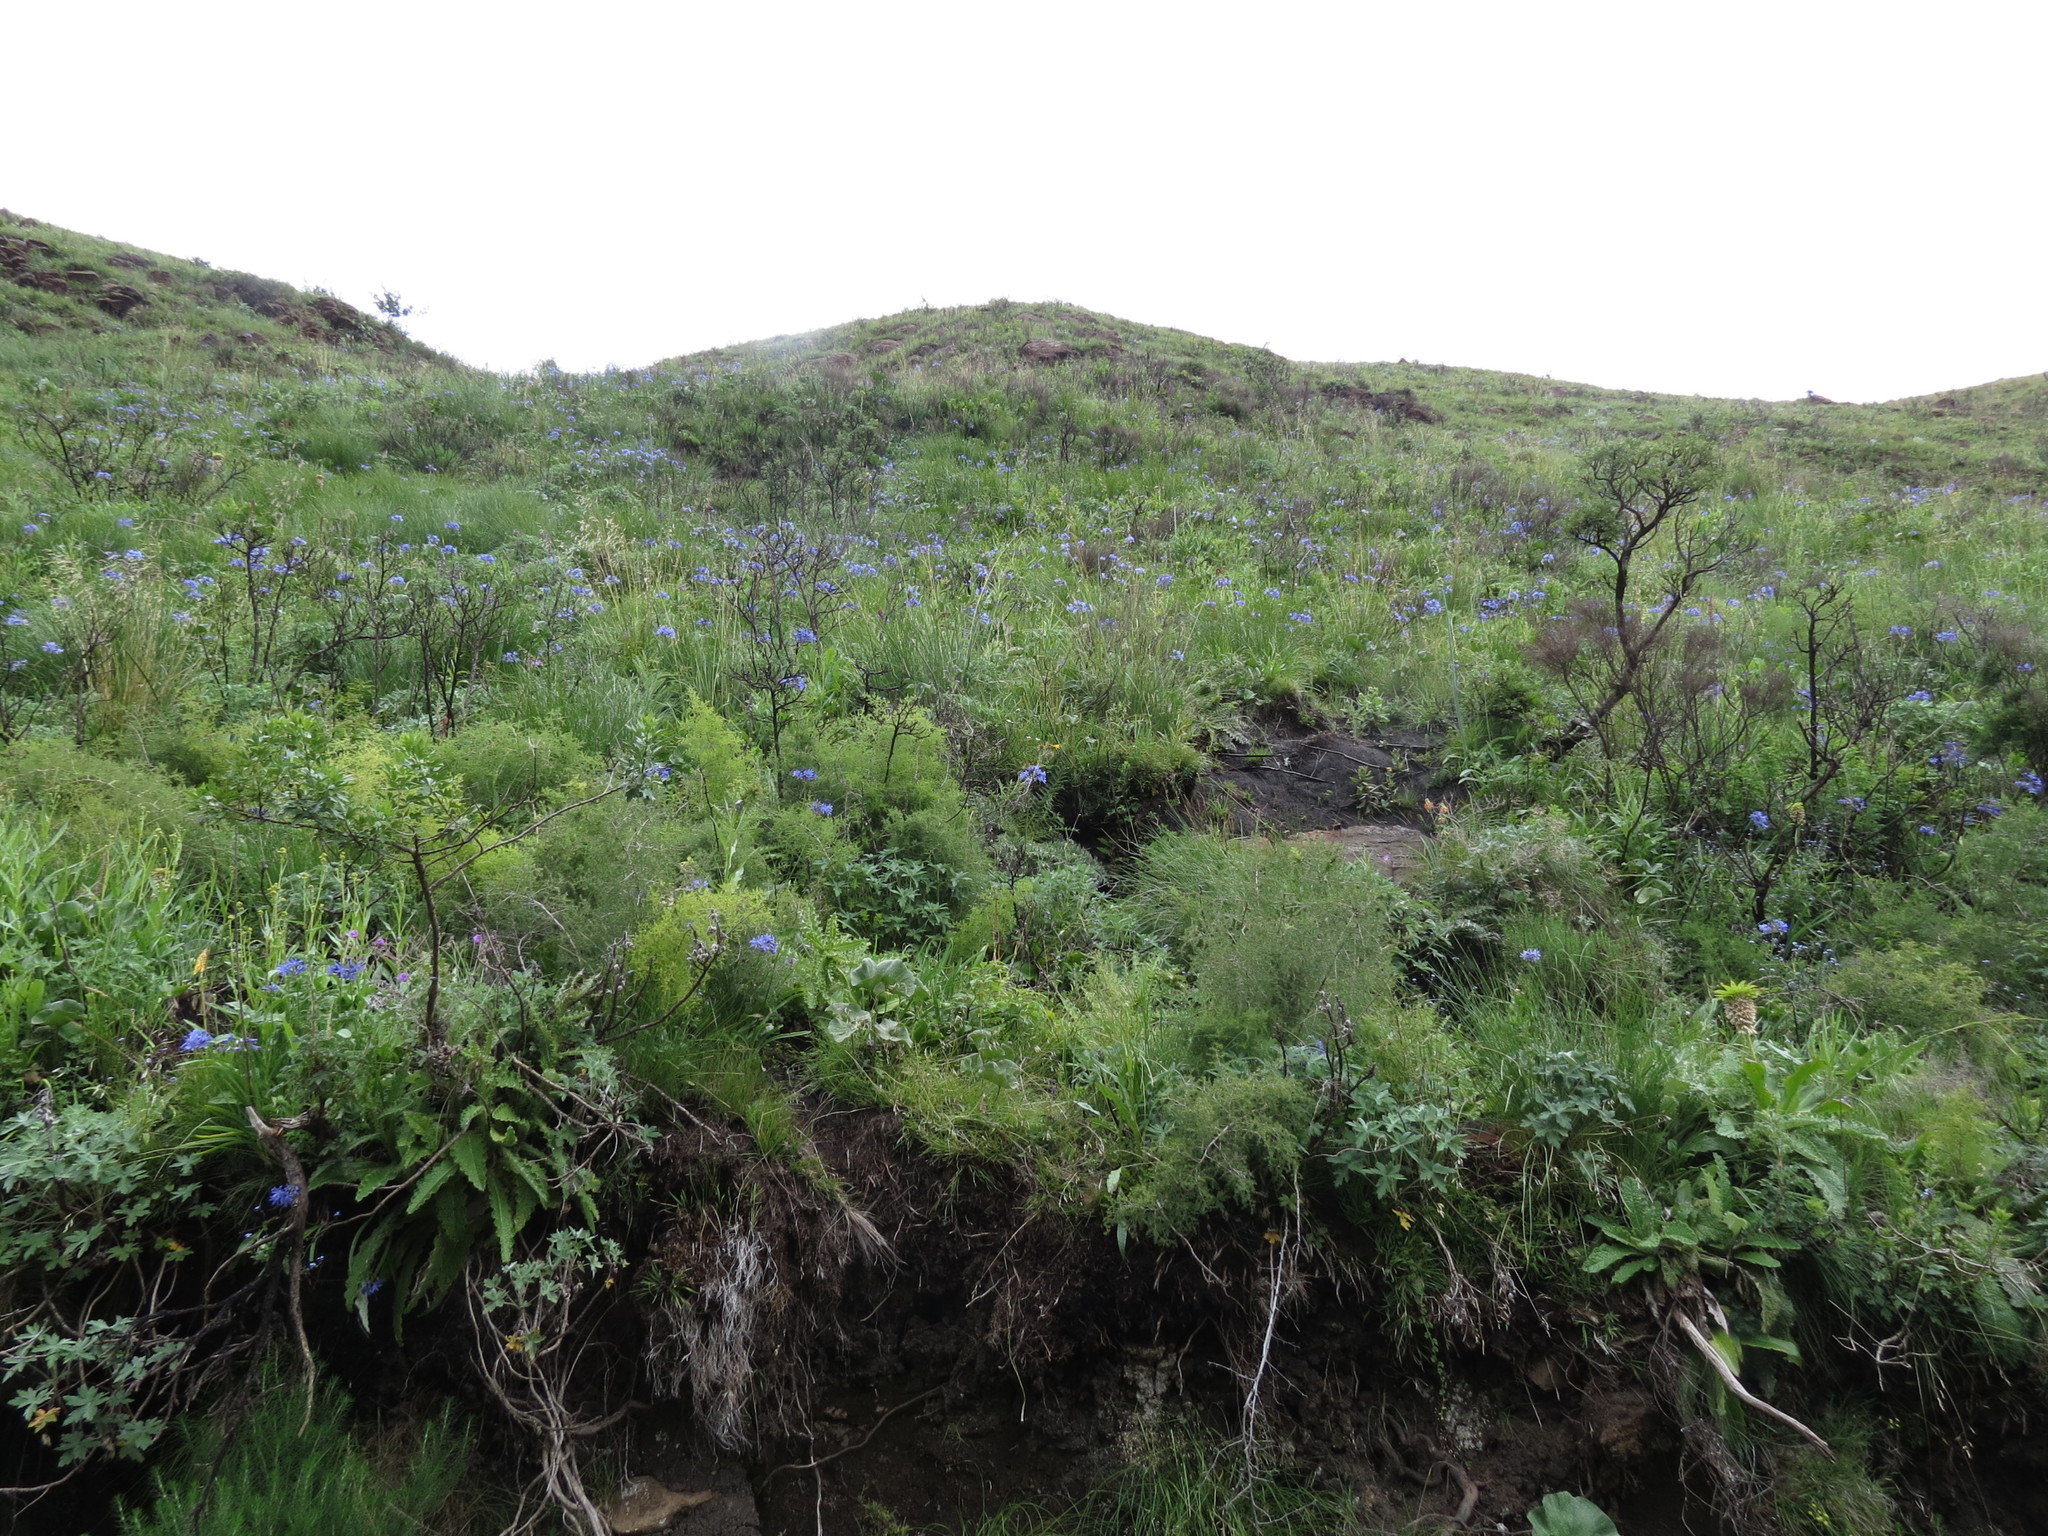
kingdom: Plantae
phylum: Tracheophyta
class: Liliopsida
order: Asparagales
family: Amaryllidaceae
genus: Agapanthus
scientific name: Agapanthus campanulatus
